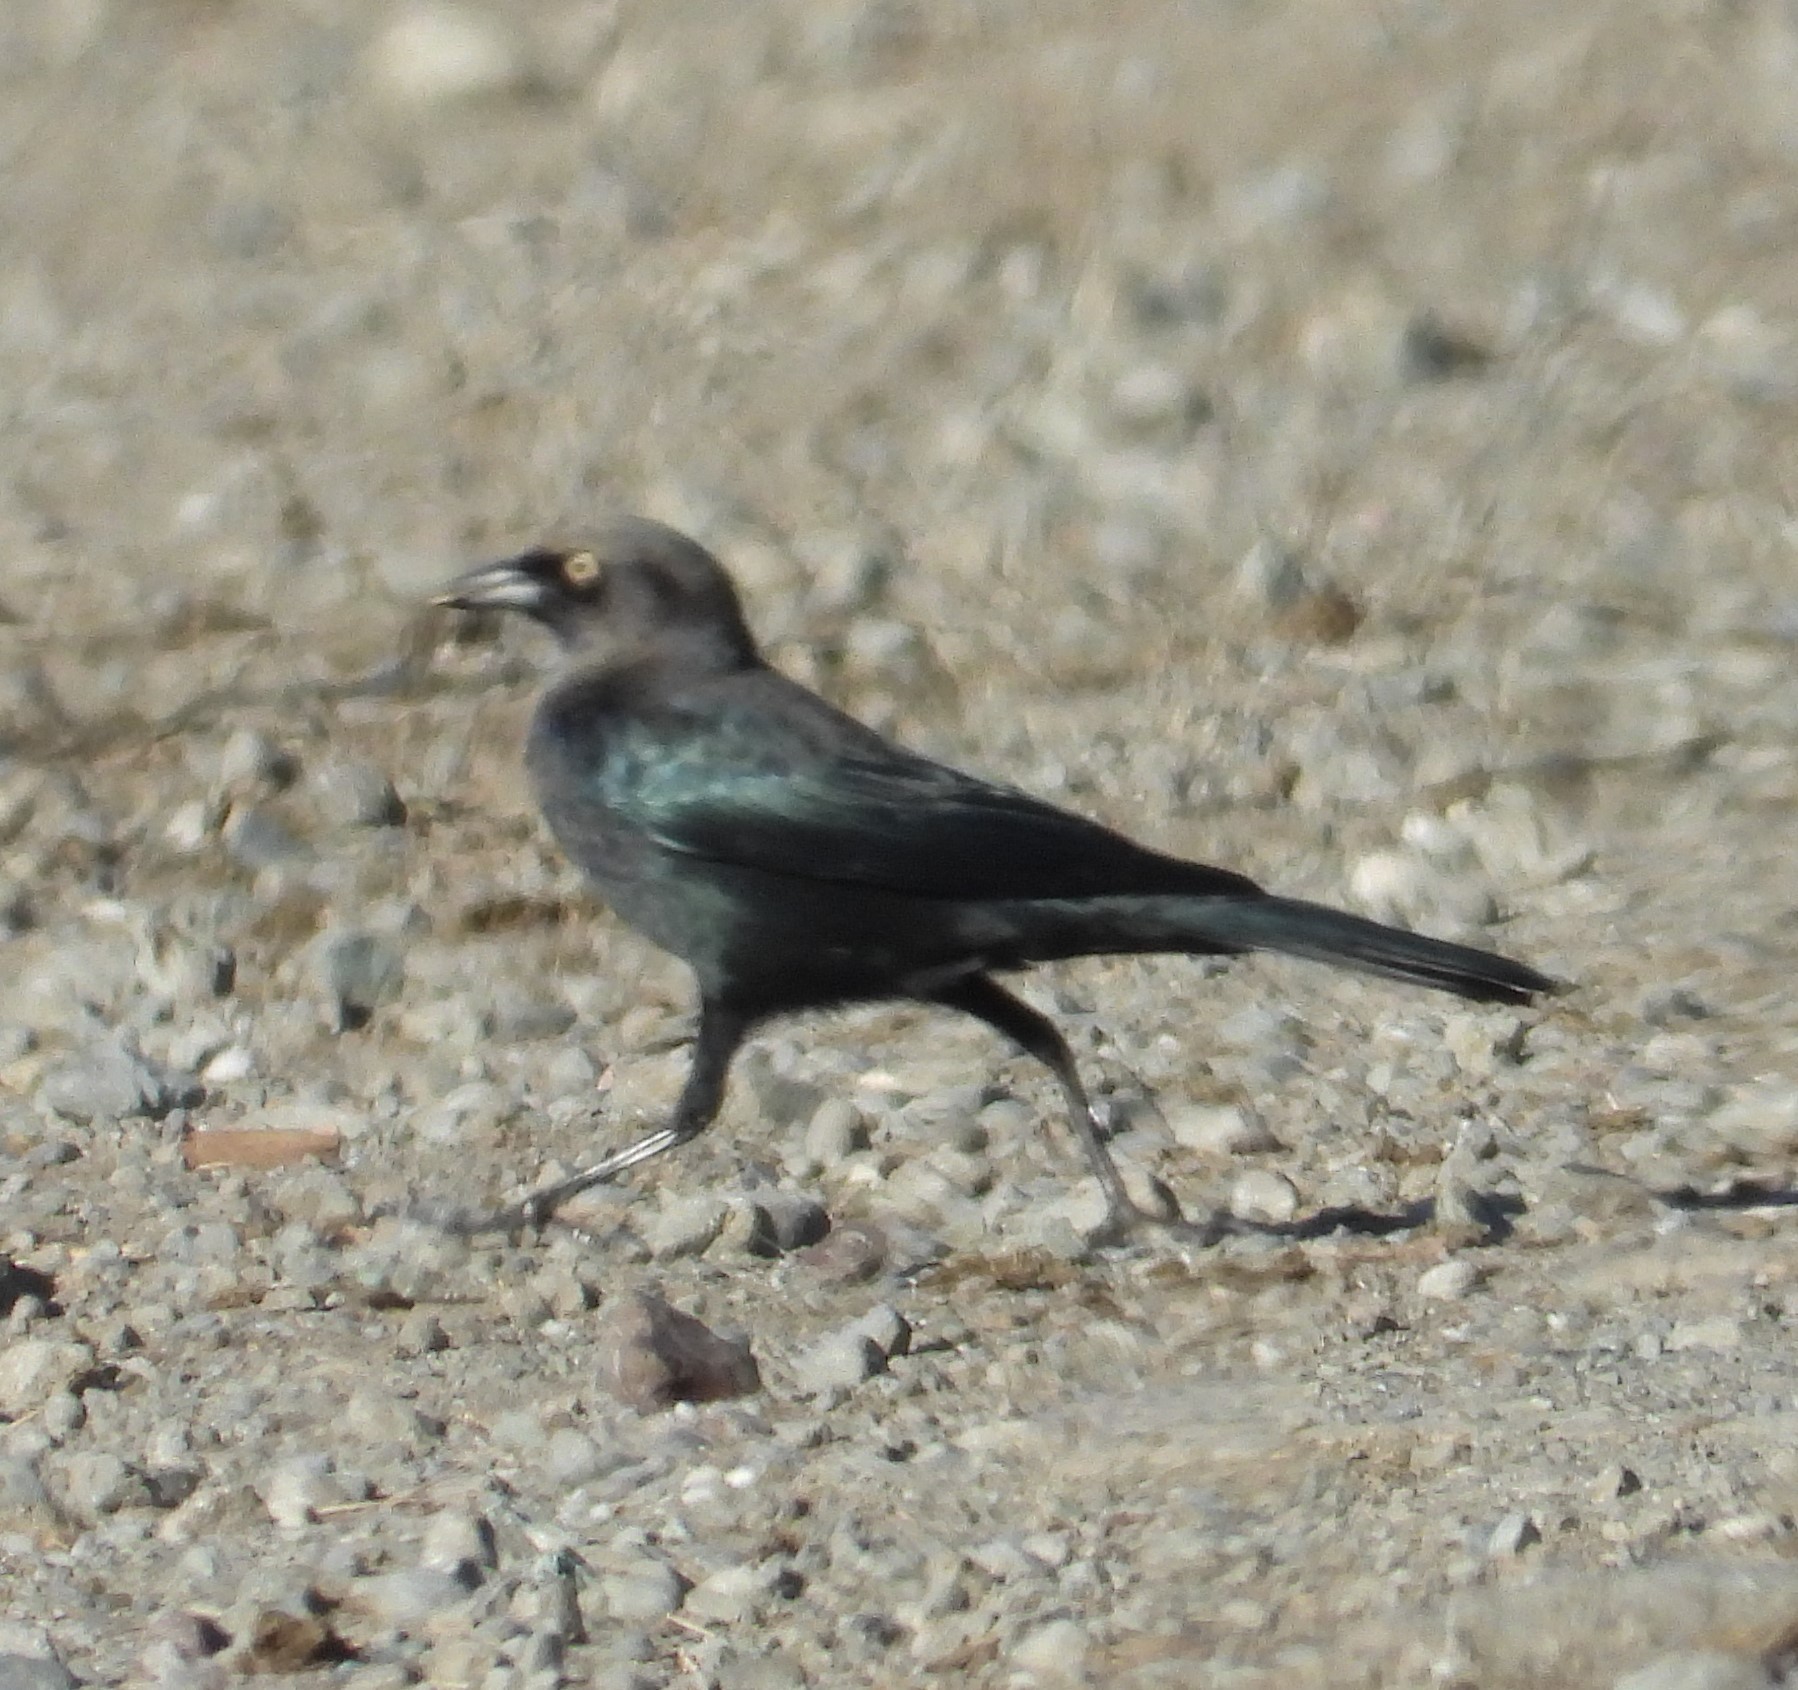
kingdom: Animalia
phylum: Chordata
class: Aves
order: Passeriformes
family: Icteridae
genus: Euphagus
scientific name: Euphagus cyanocephalus
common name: Brewer's blackbird
